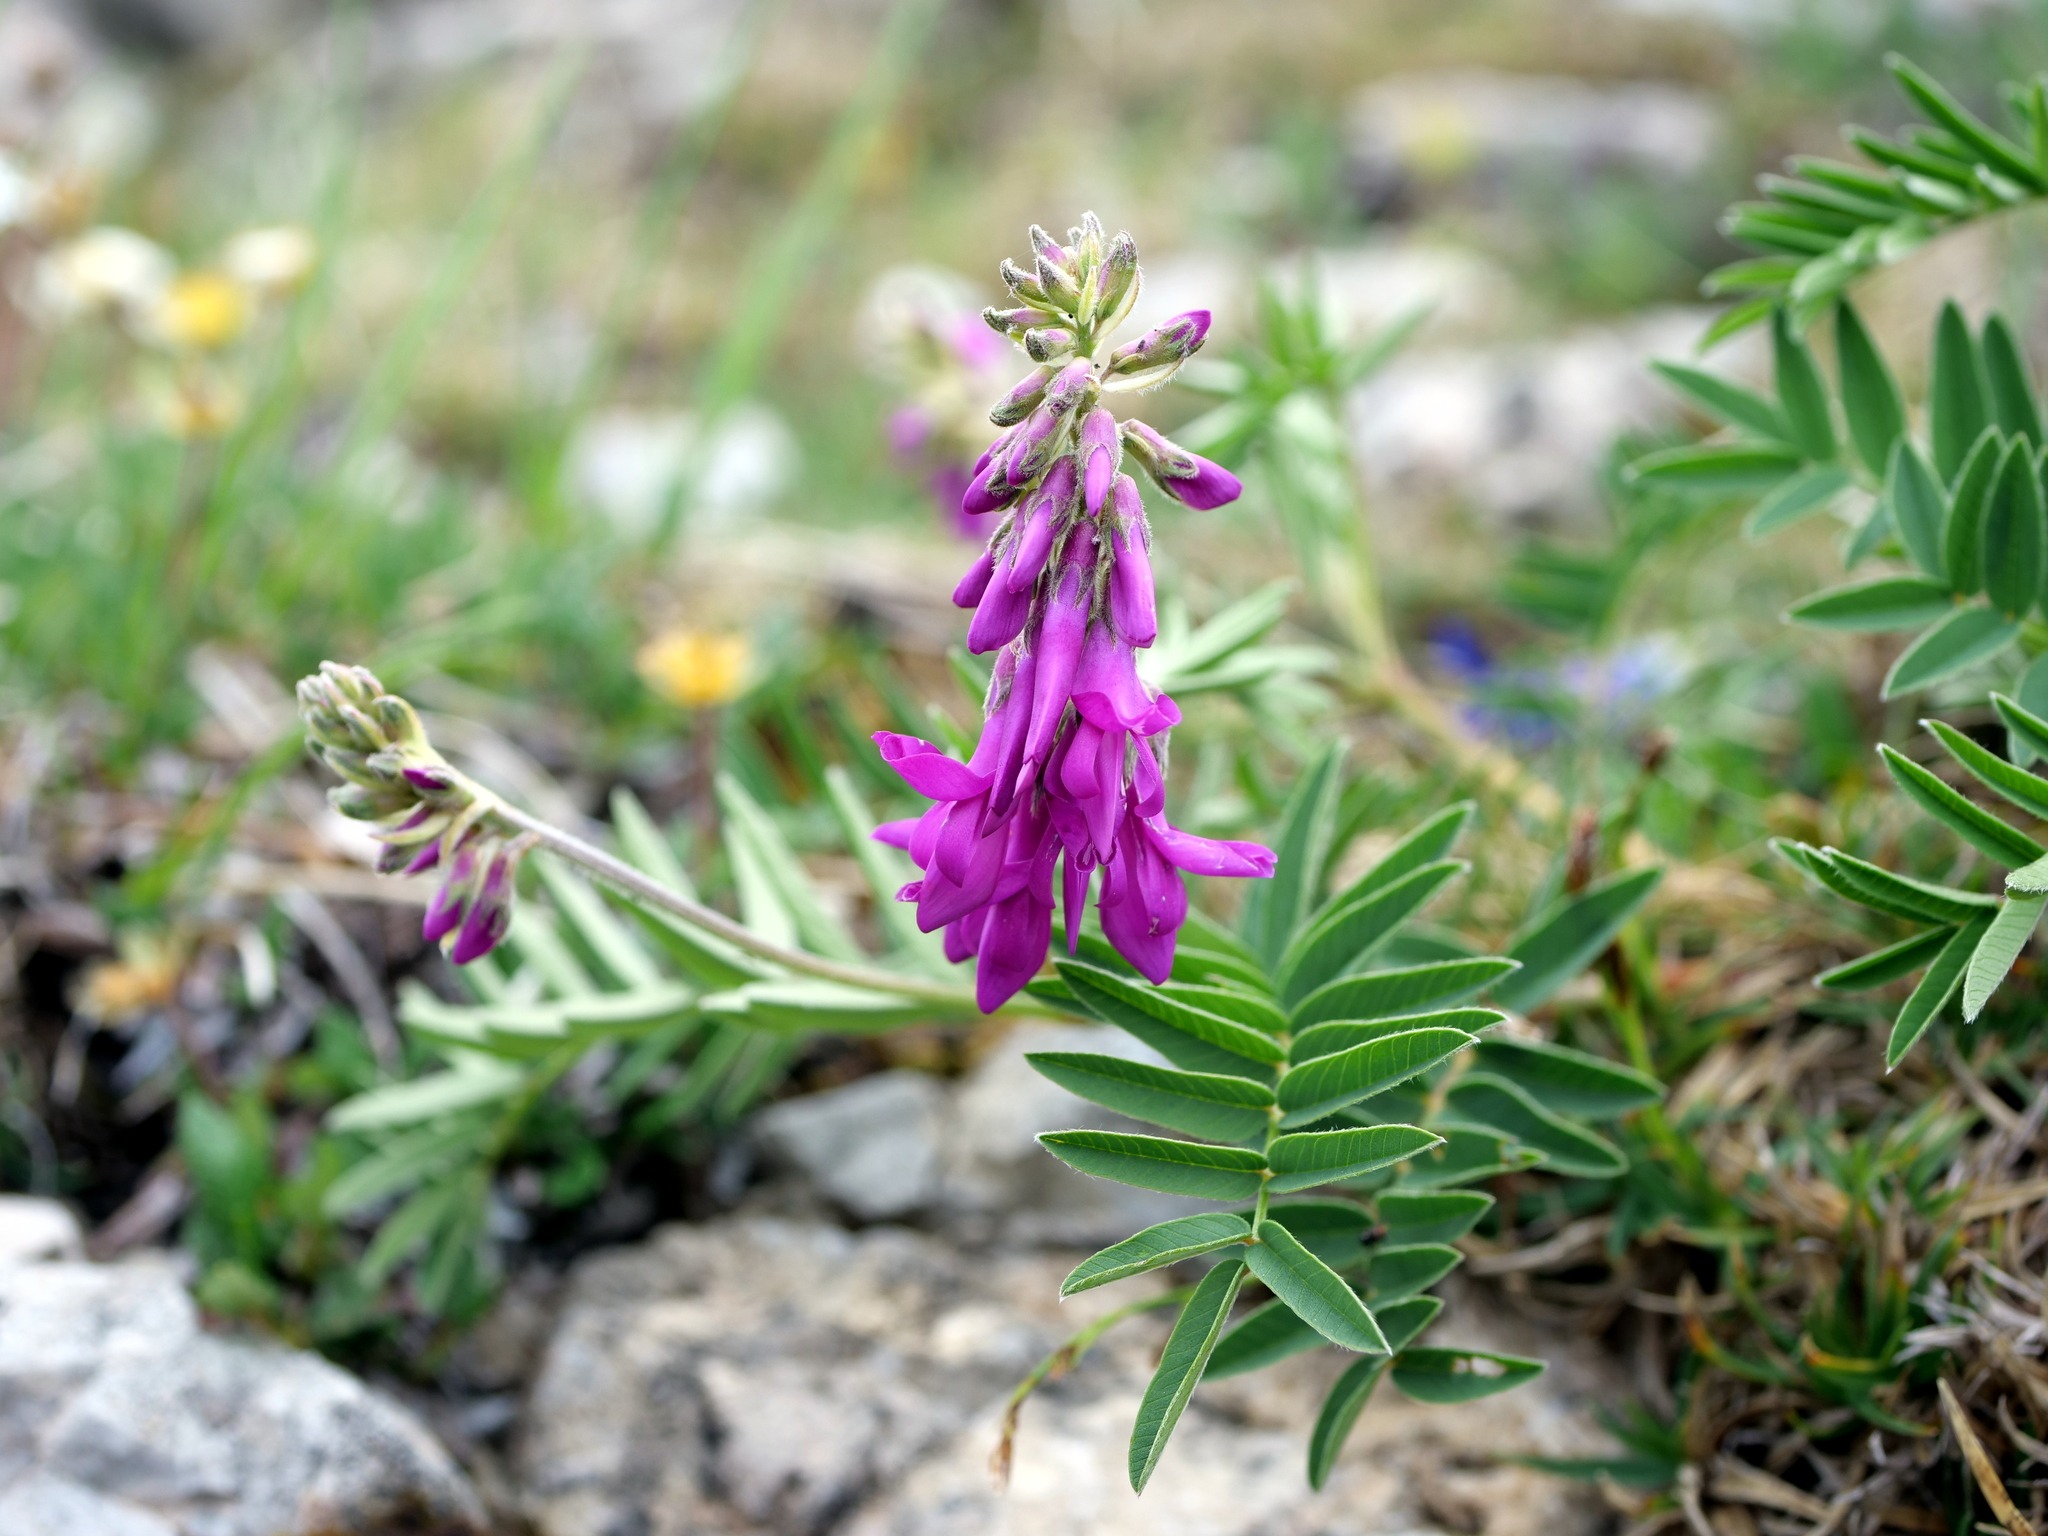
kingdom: Plantae
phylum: Tracheophyta
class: Magnoliopsida
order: Fabales
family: Fabaceae
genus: Hedysarum
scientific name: Hedysarum hedysaroides
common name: Alpine french-honeysuckle
